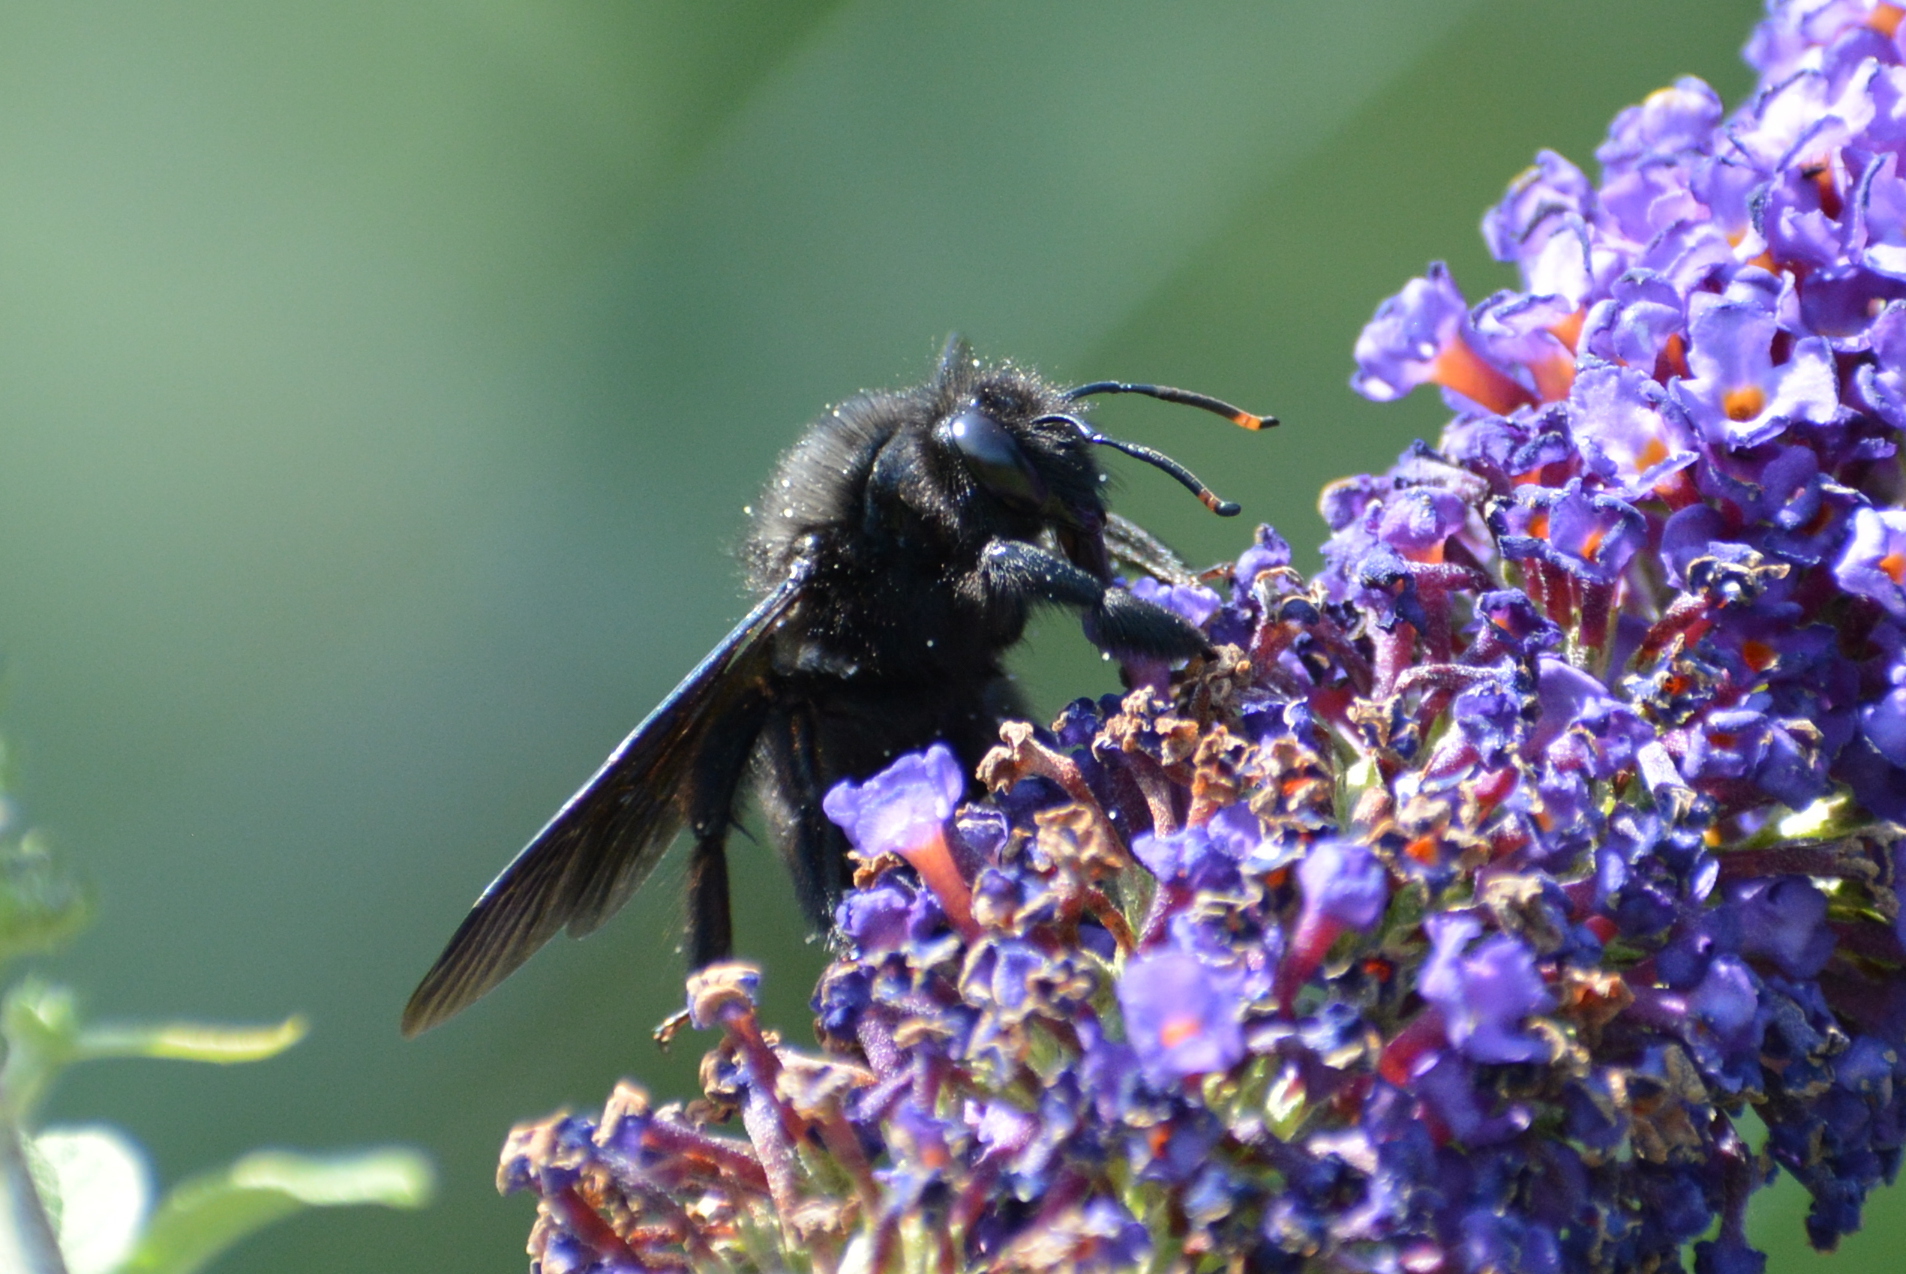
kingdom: Animalia
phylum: Arthropoda
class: Insecta
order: Hymenoptera
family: Apidae
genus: Xylocopa
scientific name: Xylocopa violacea
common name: Violet carpenter bee
